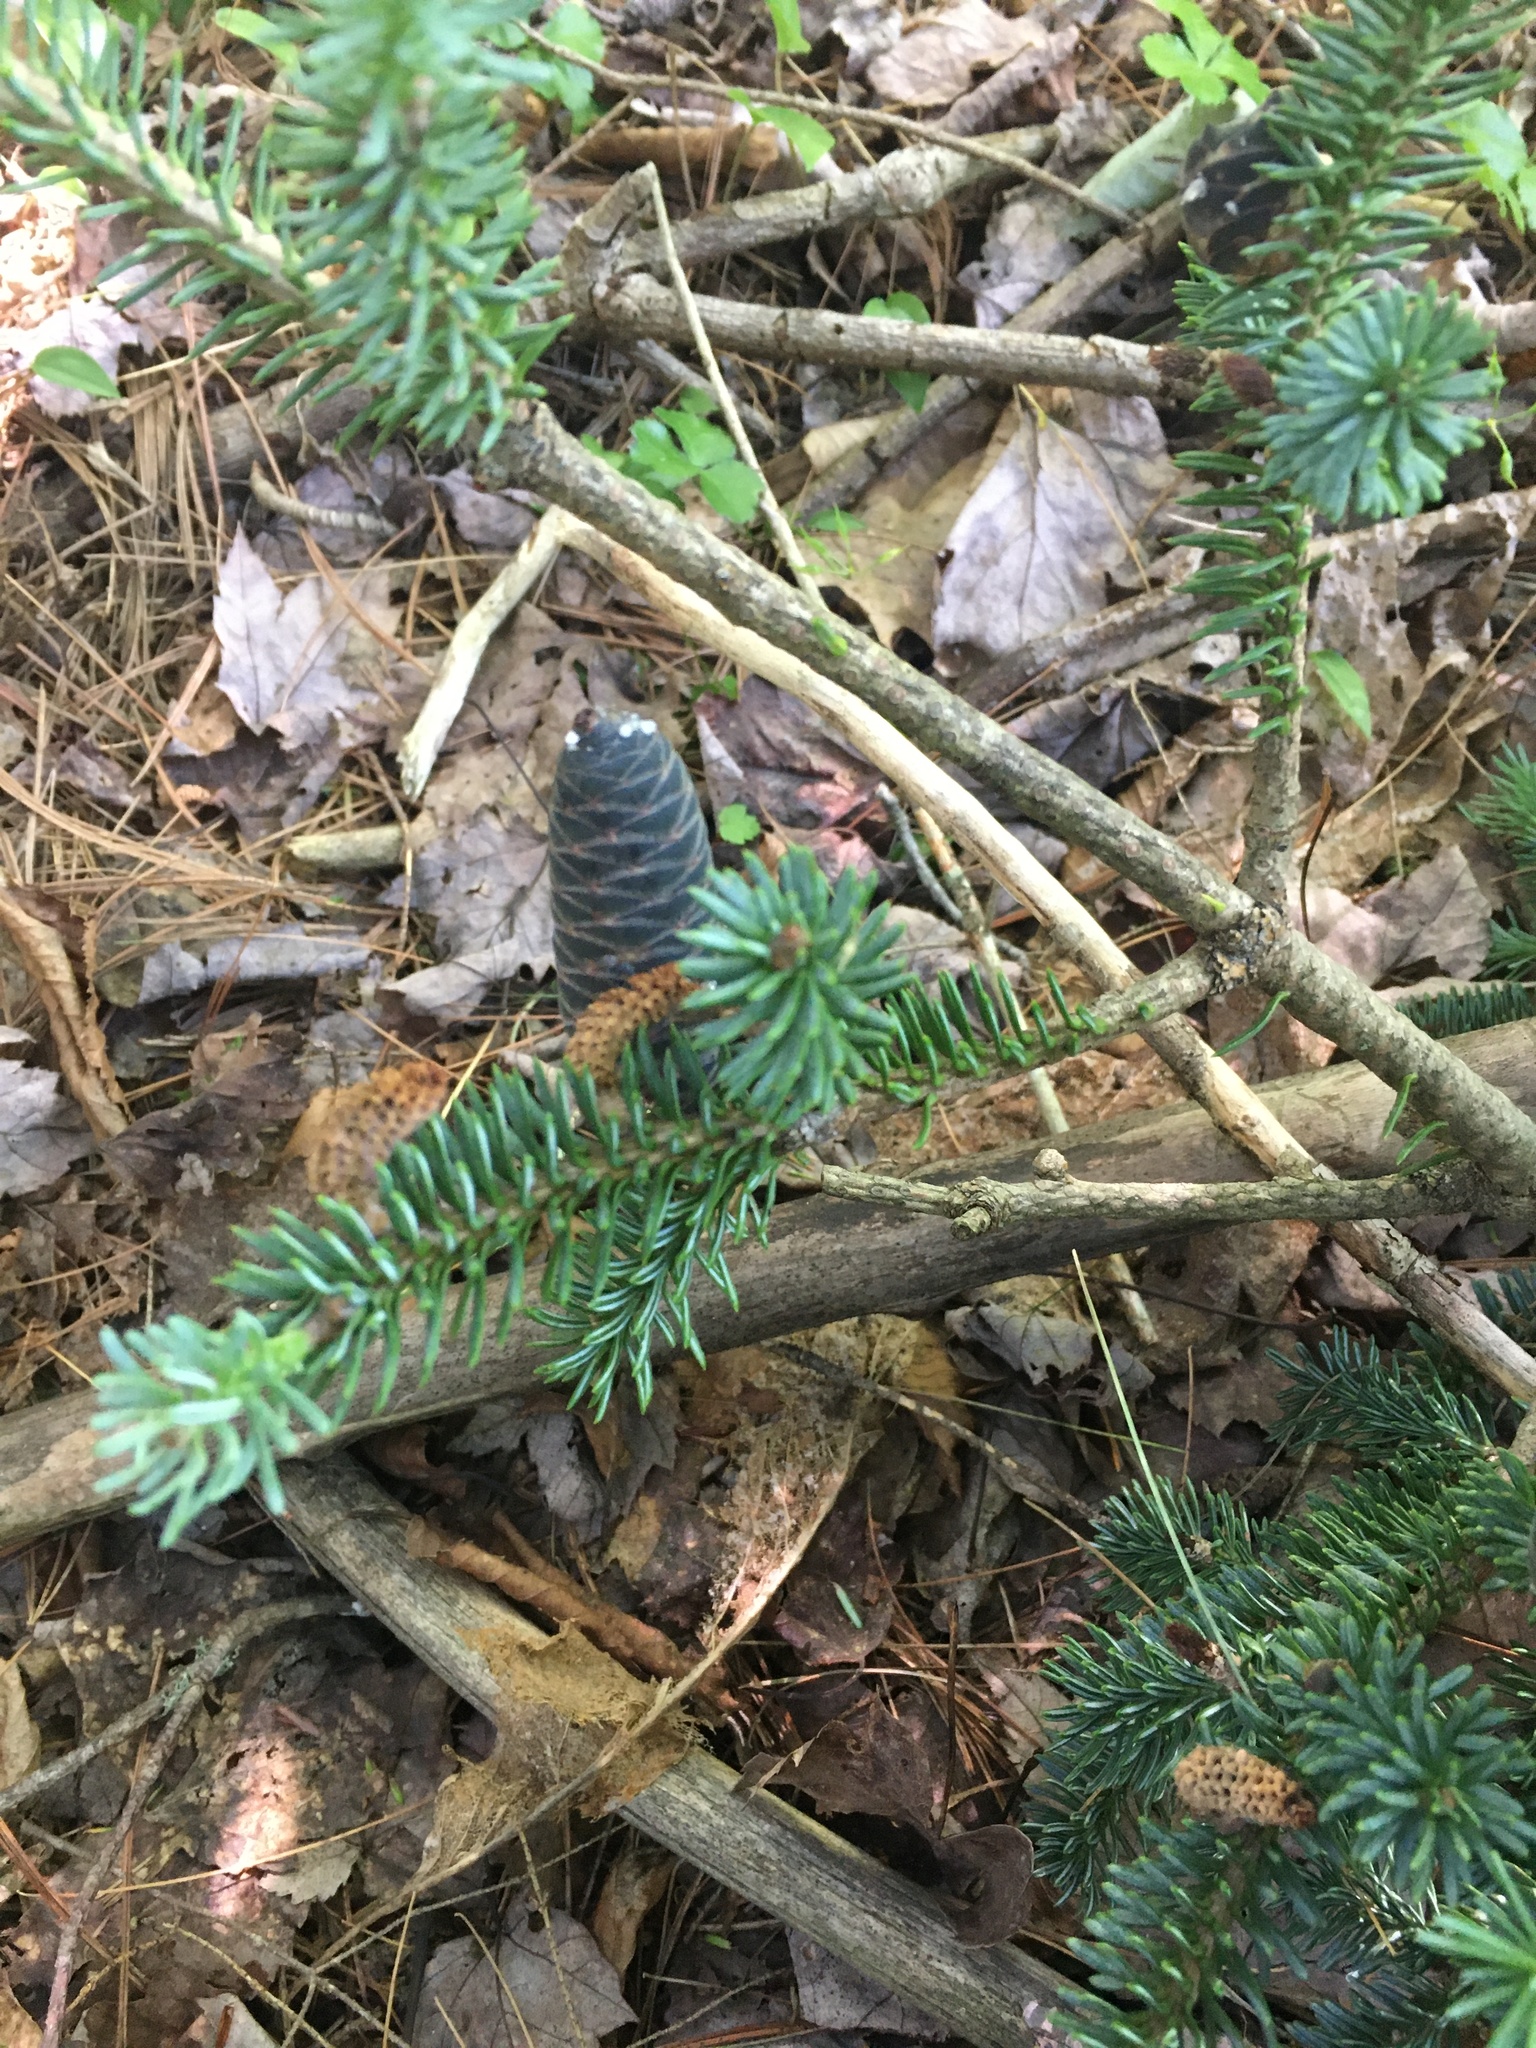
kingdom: Plantae
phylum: Tracheophyta
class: Pinopsida
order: Pinales
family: Pinaceae
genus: Abies
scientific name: Abies balsamea
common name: Balsam fir
